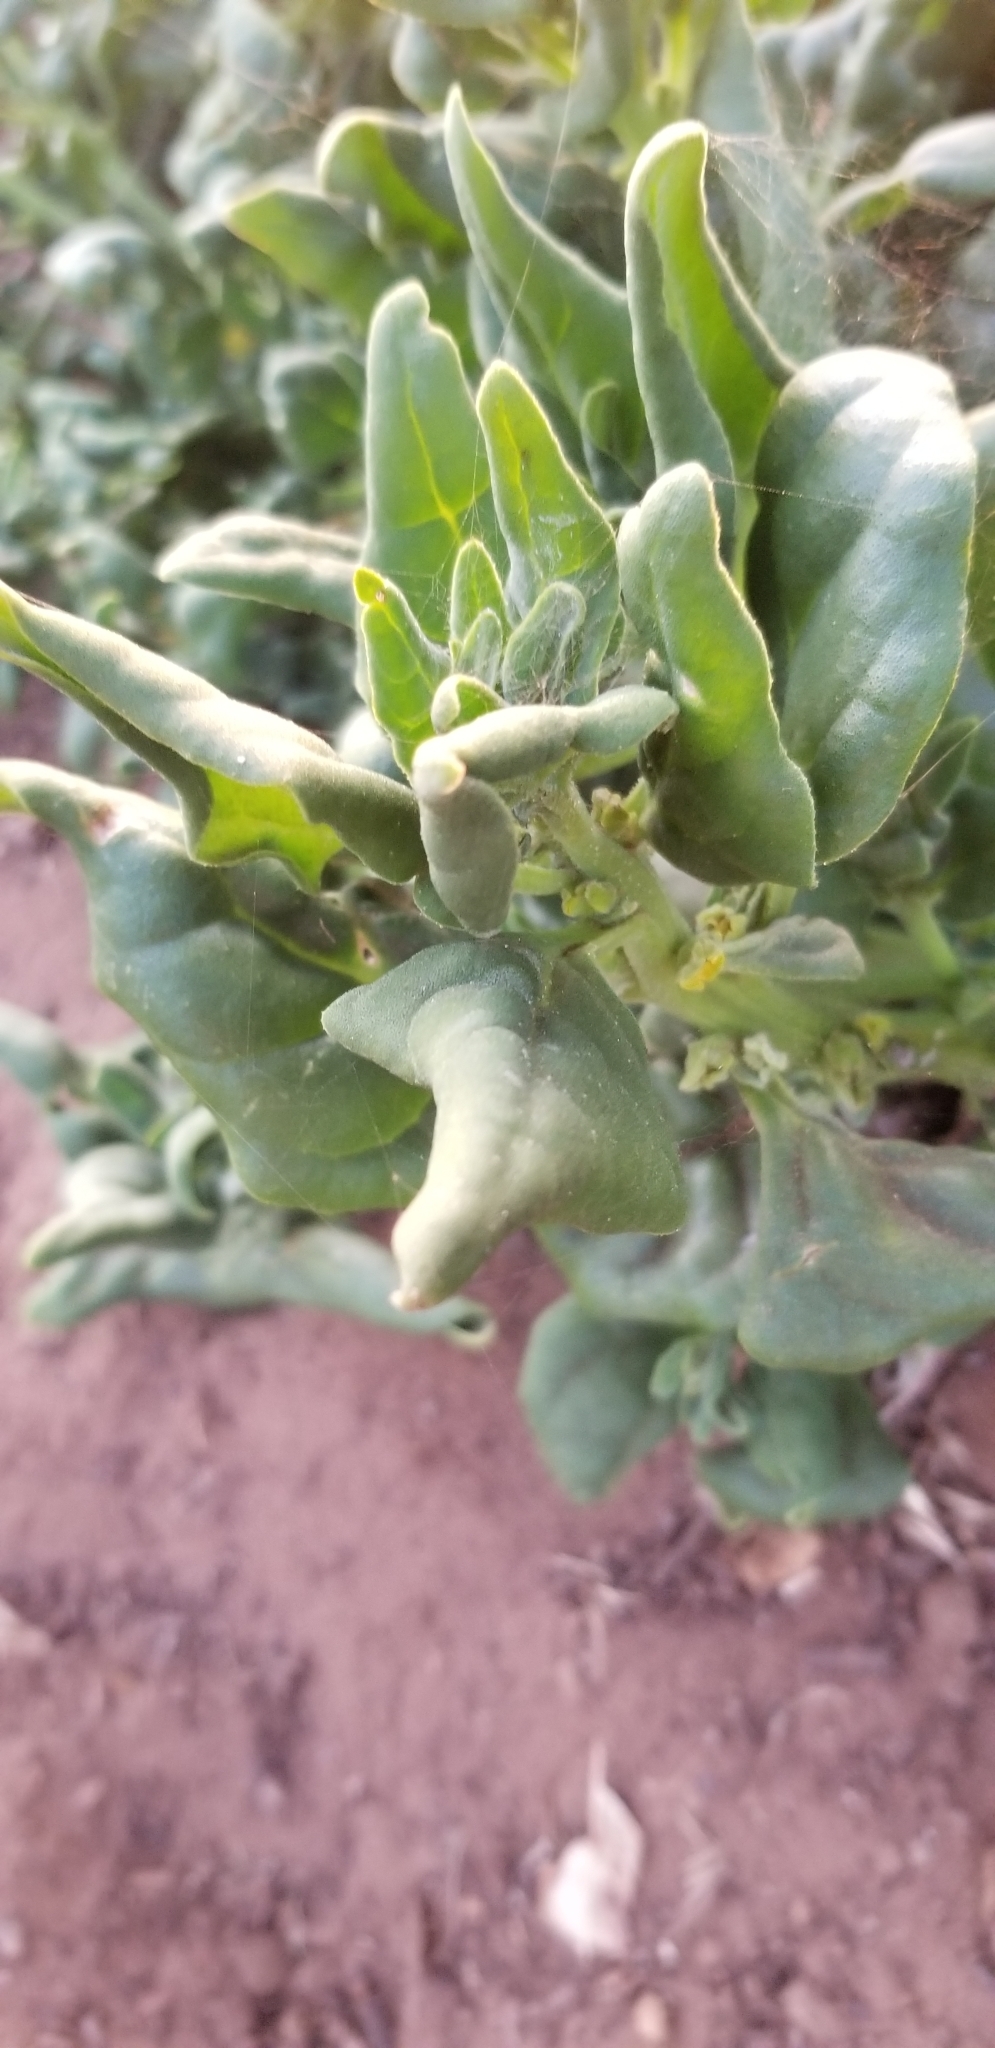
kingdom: Plantae
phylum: Tracheophyta
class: Magnoliopsida
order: Caryophyllales
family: Aizoaceae
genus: Tetragonia
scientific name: Tetragonia tetragonoides
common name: New zealand-spinach
